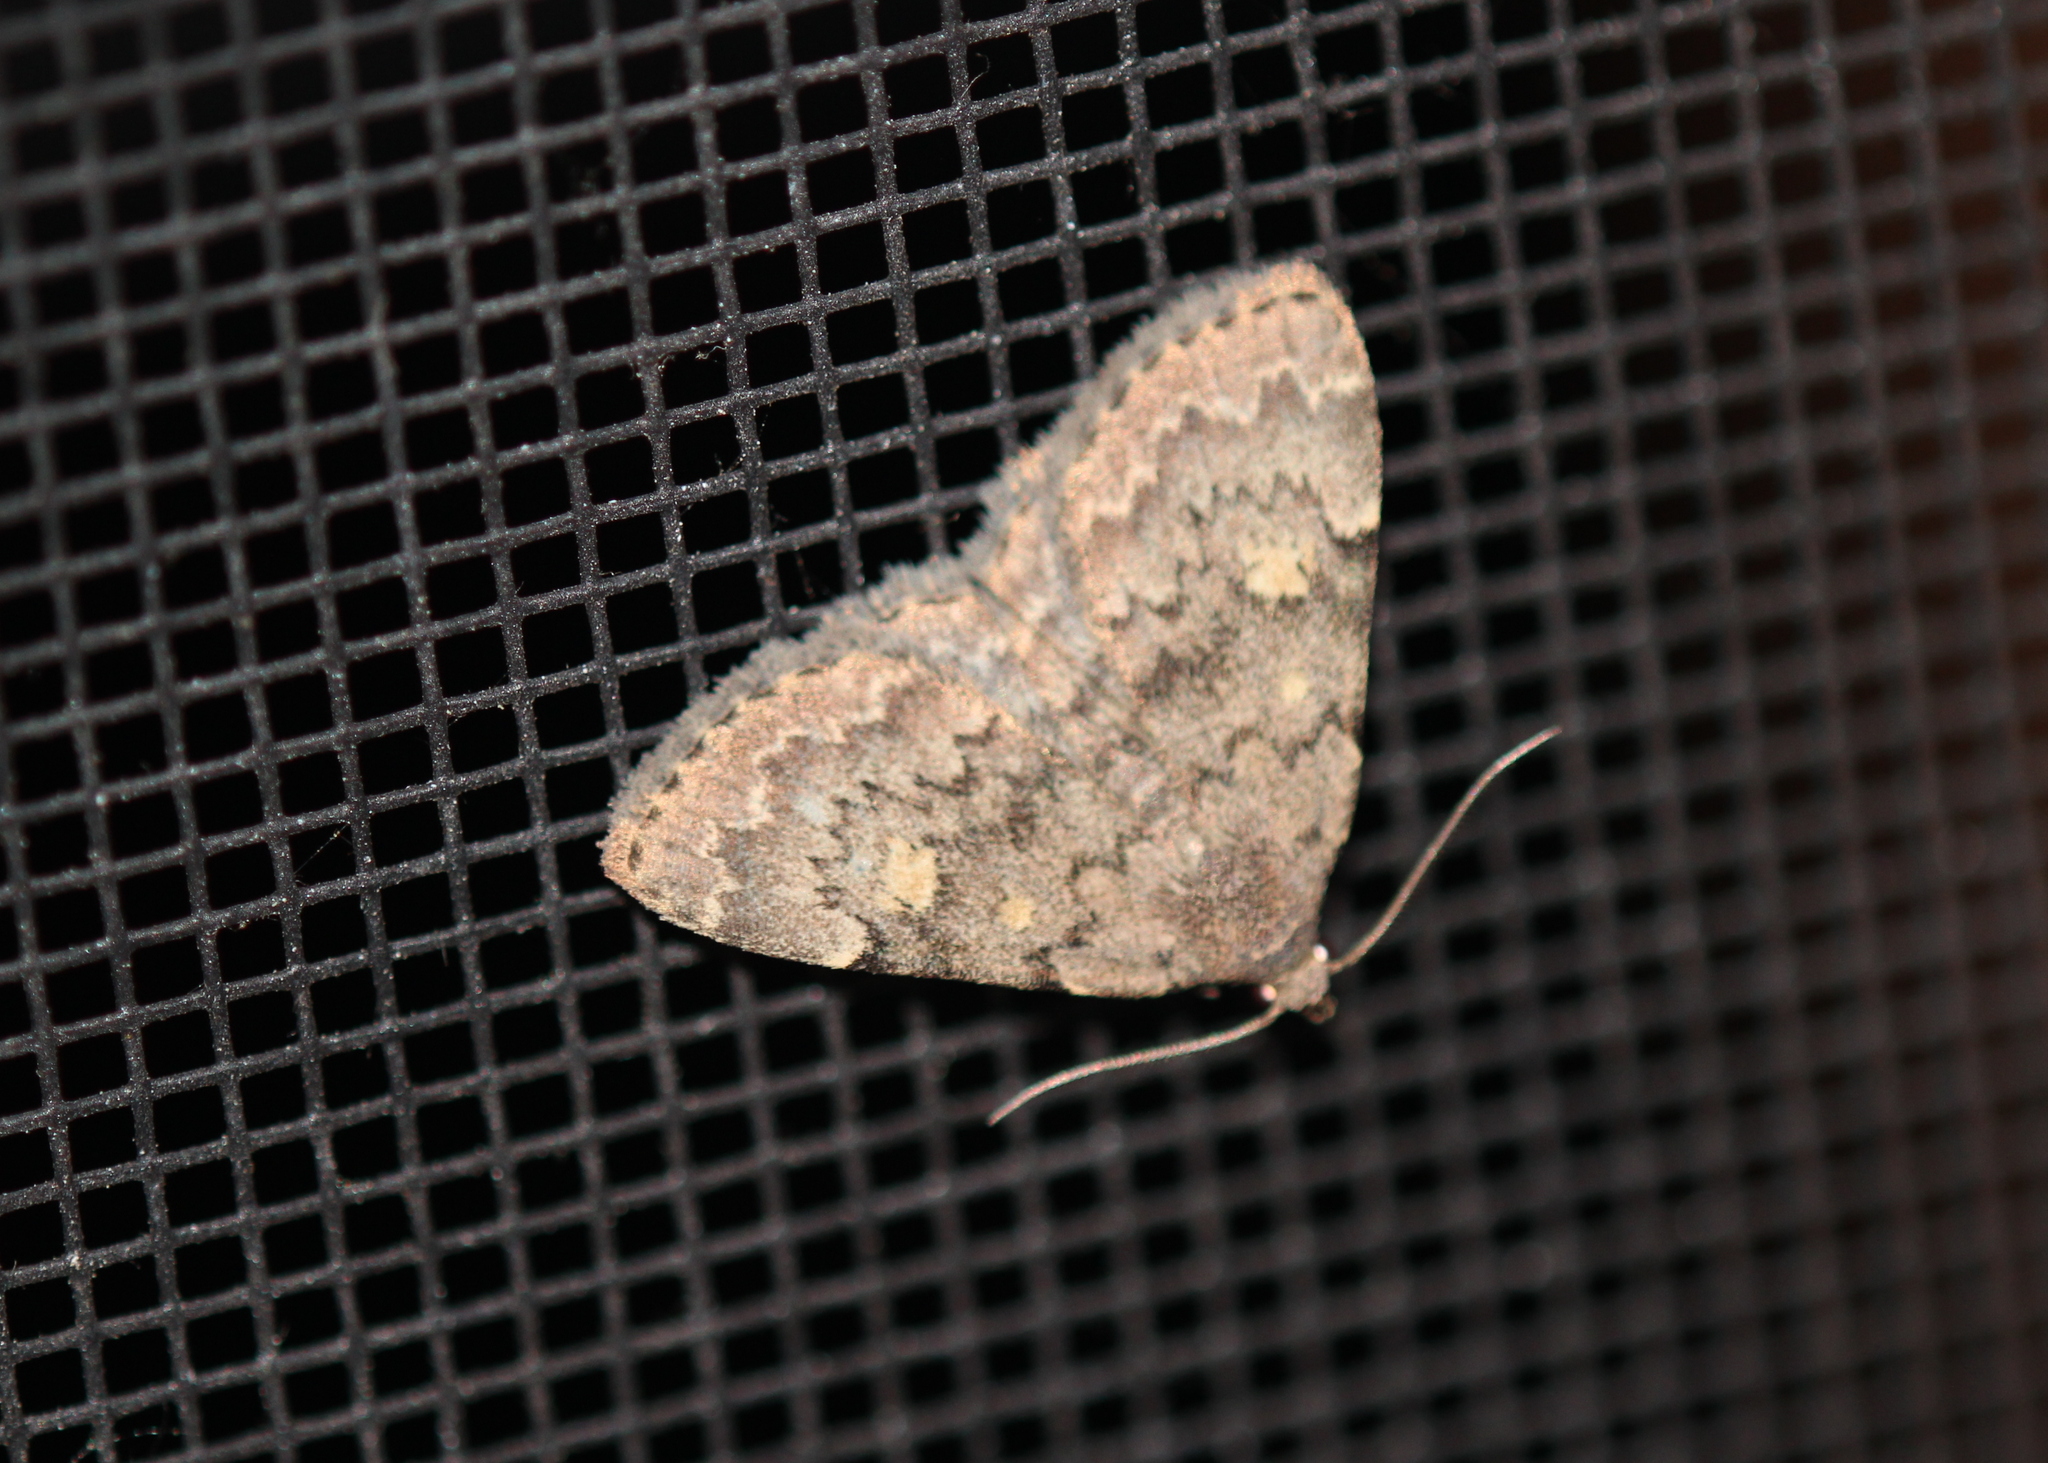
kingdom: Animalia
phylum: Arthropoda
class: Insecta
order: Lepidoptera
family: Erebidae
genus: Idia
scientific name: Idia aemula
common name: Common idia moth
